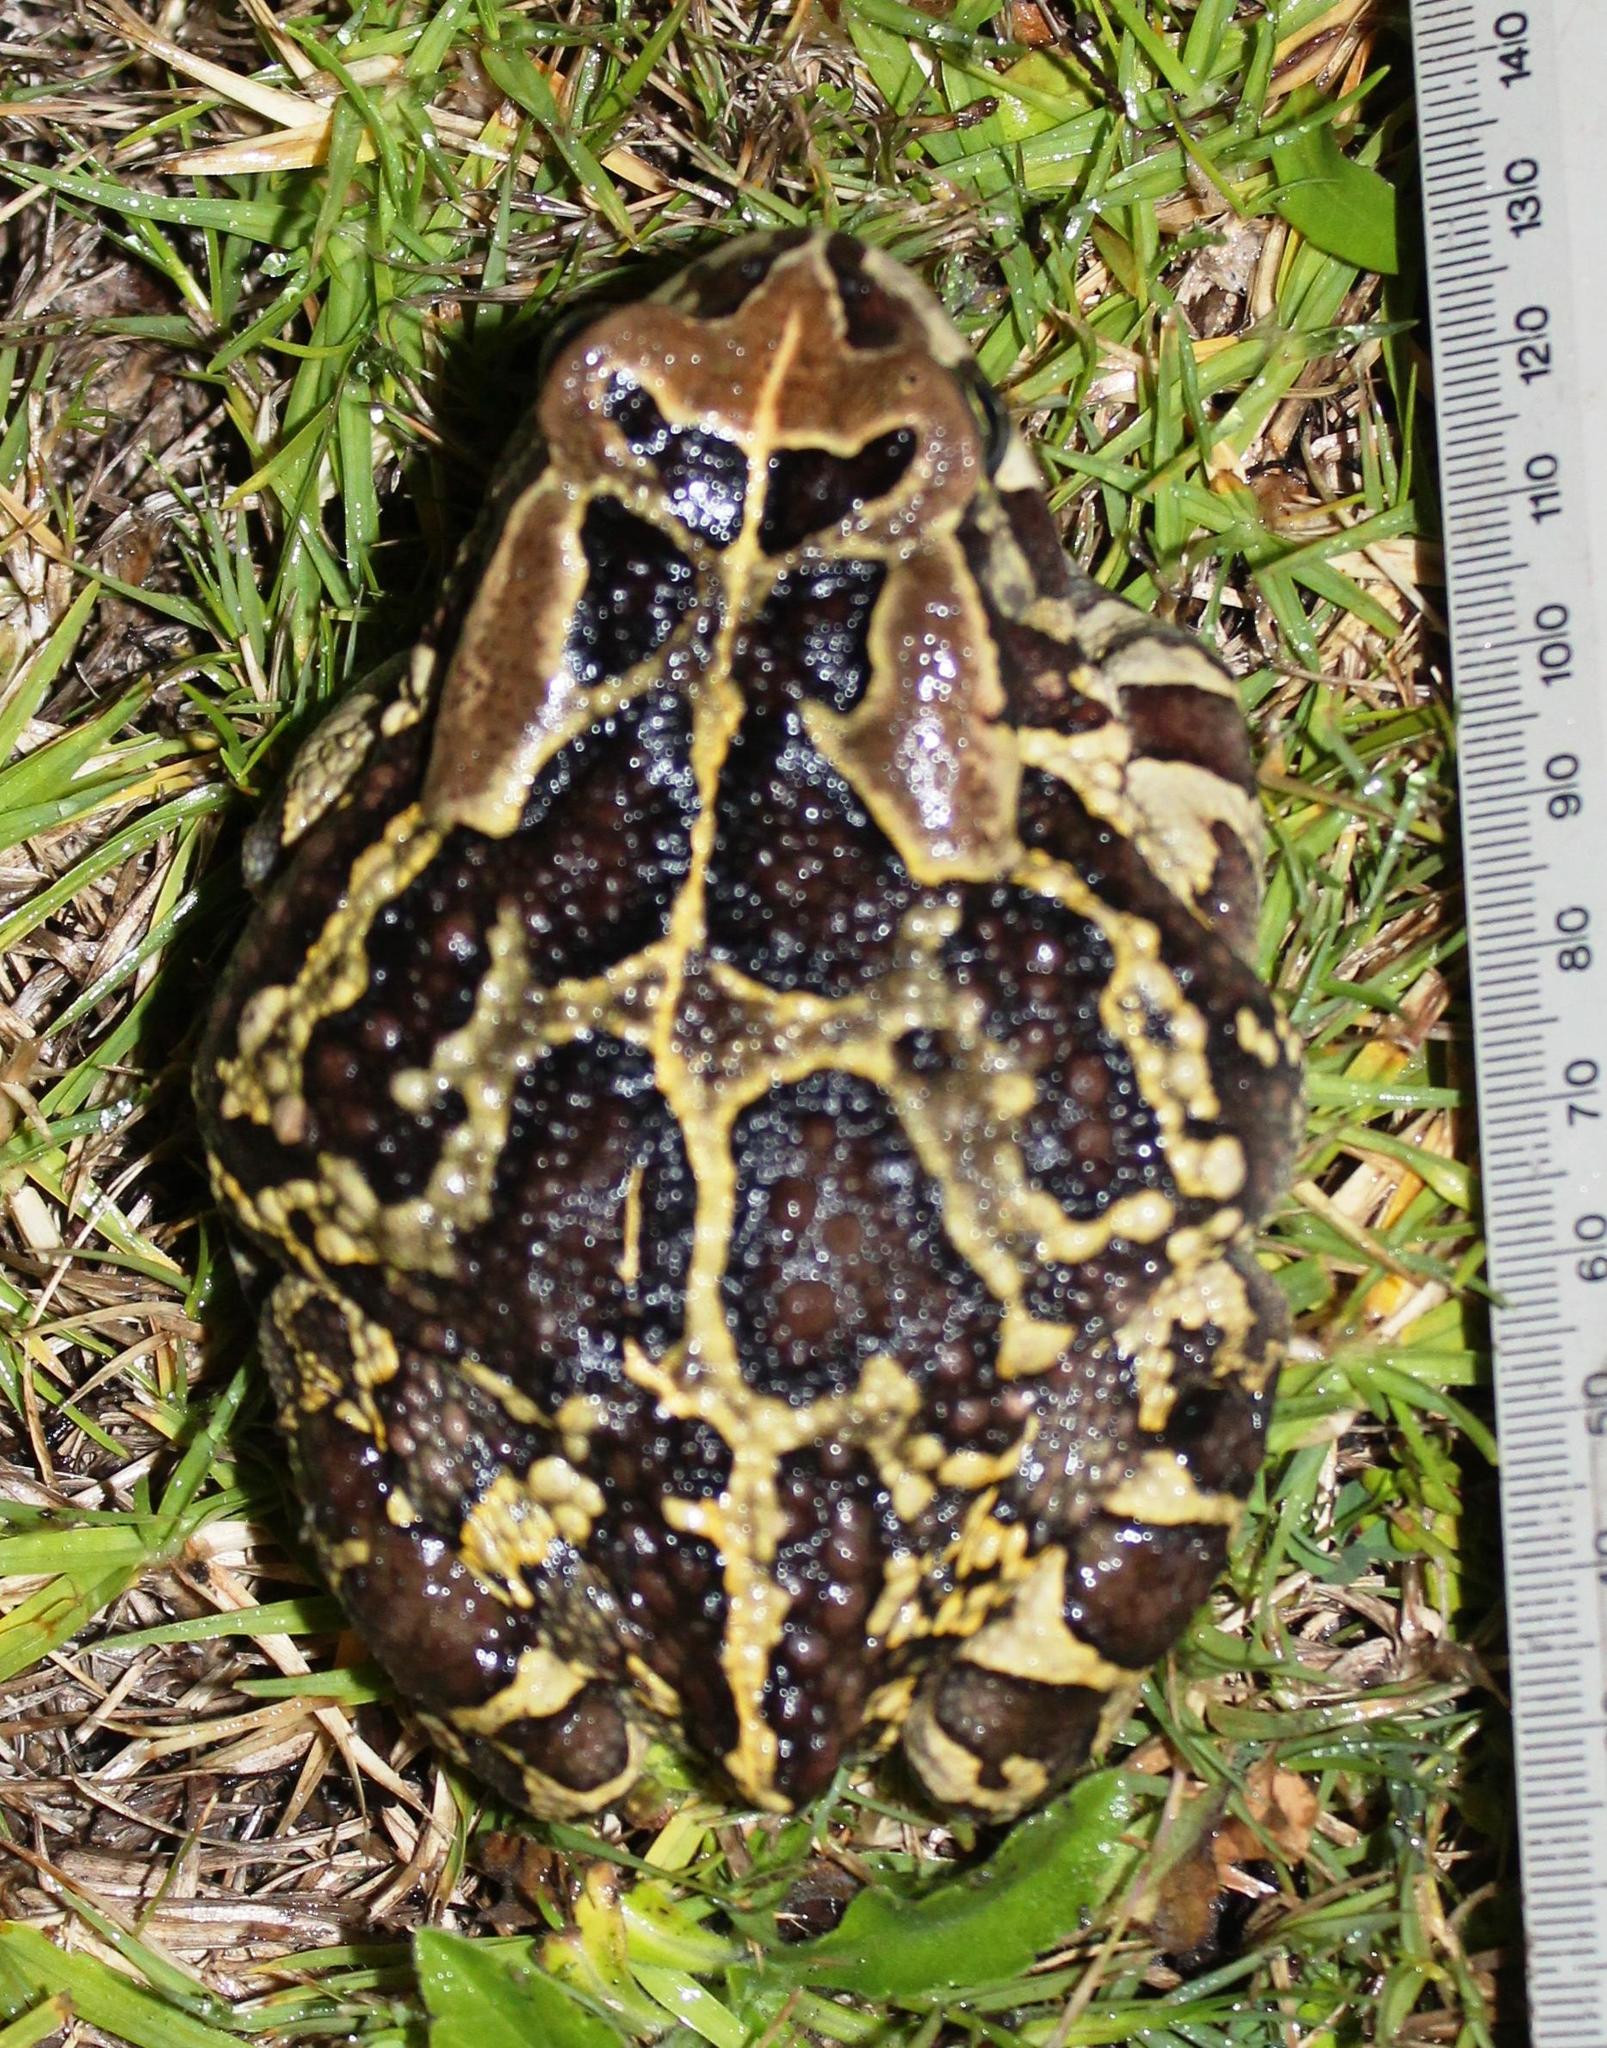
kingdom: Animalia
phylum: Chordata
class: Amphibia
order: Anura
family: Bufonidae
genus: Sclerophrys
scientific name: Sclerophrys pantherina
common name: Panther toad
